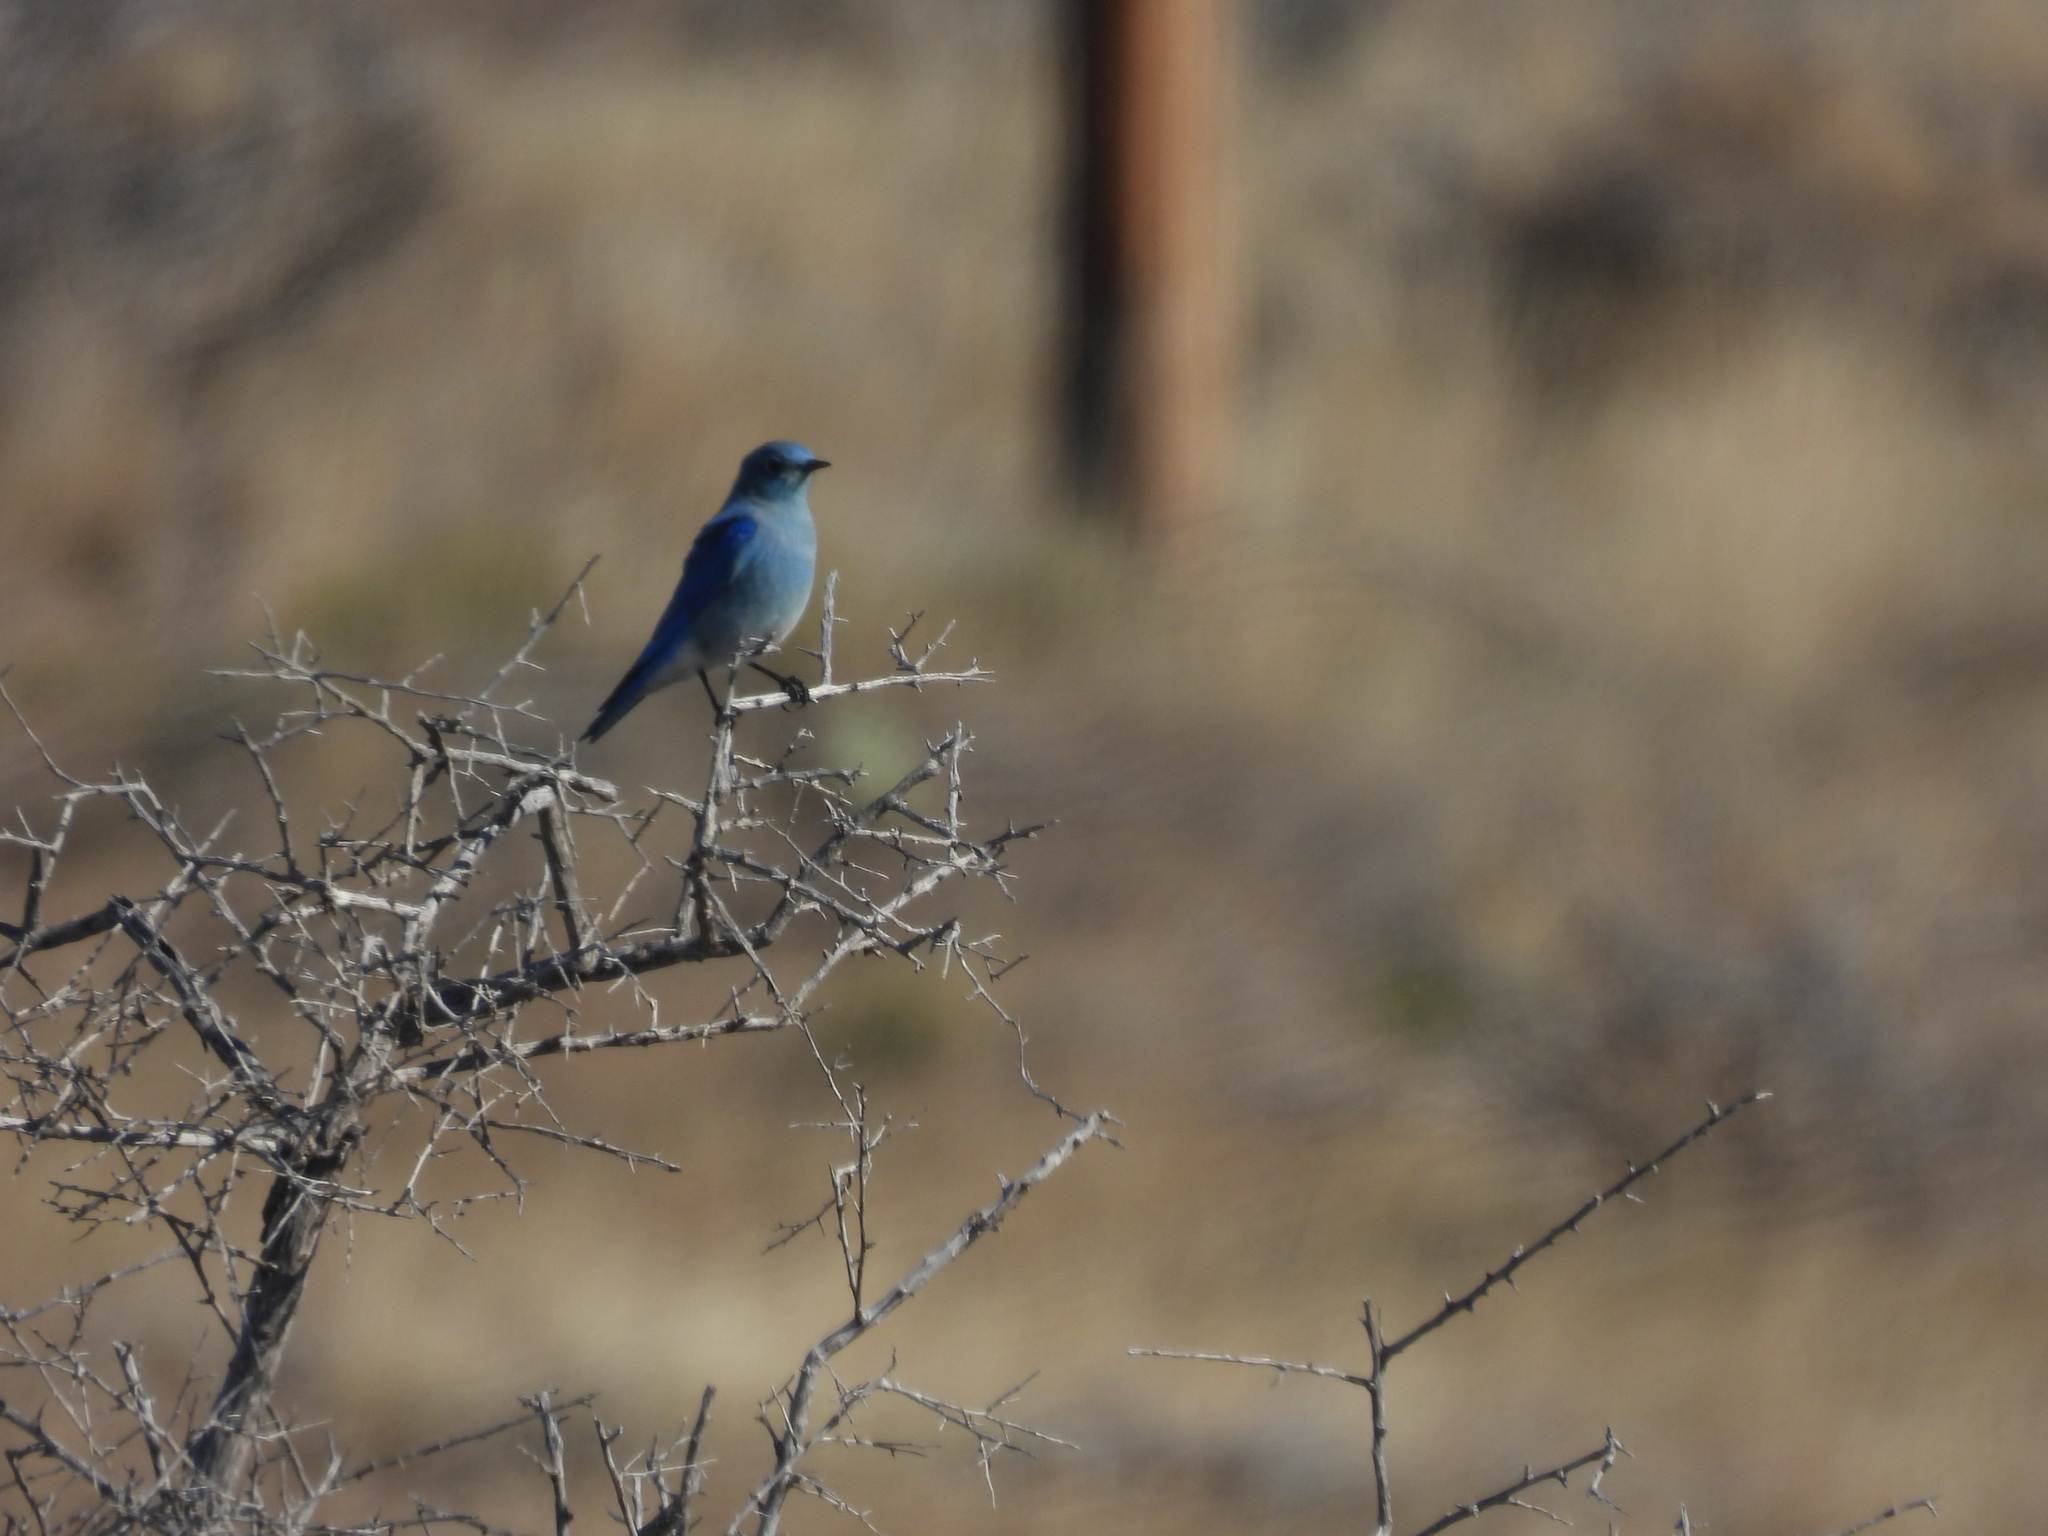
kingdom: Animalia
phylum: Chordata
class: Aves
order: Passeriformes
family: Turdidae
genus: Sialia
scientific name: Sialia currucoides
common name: Mountain bluebird
